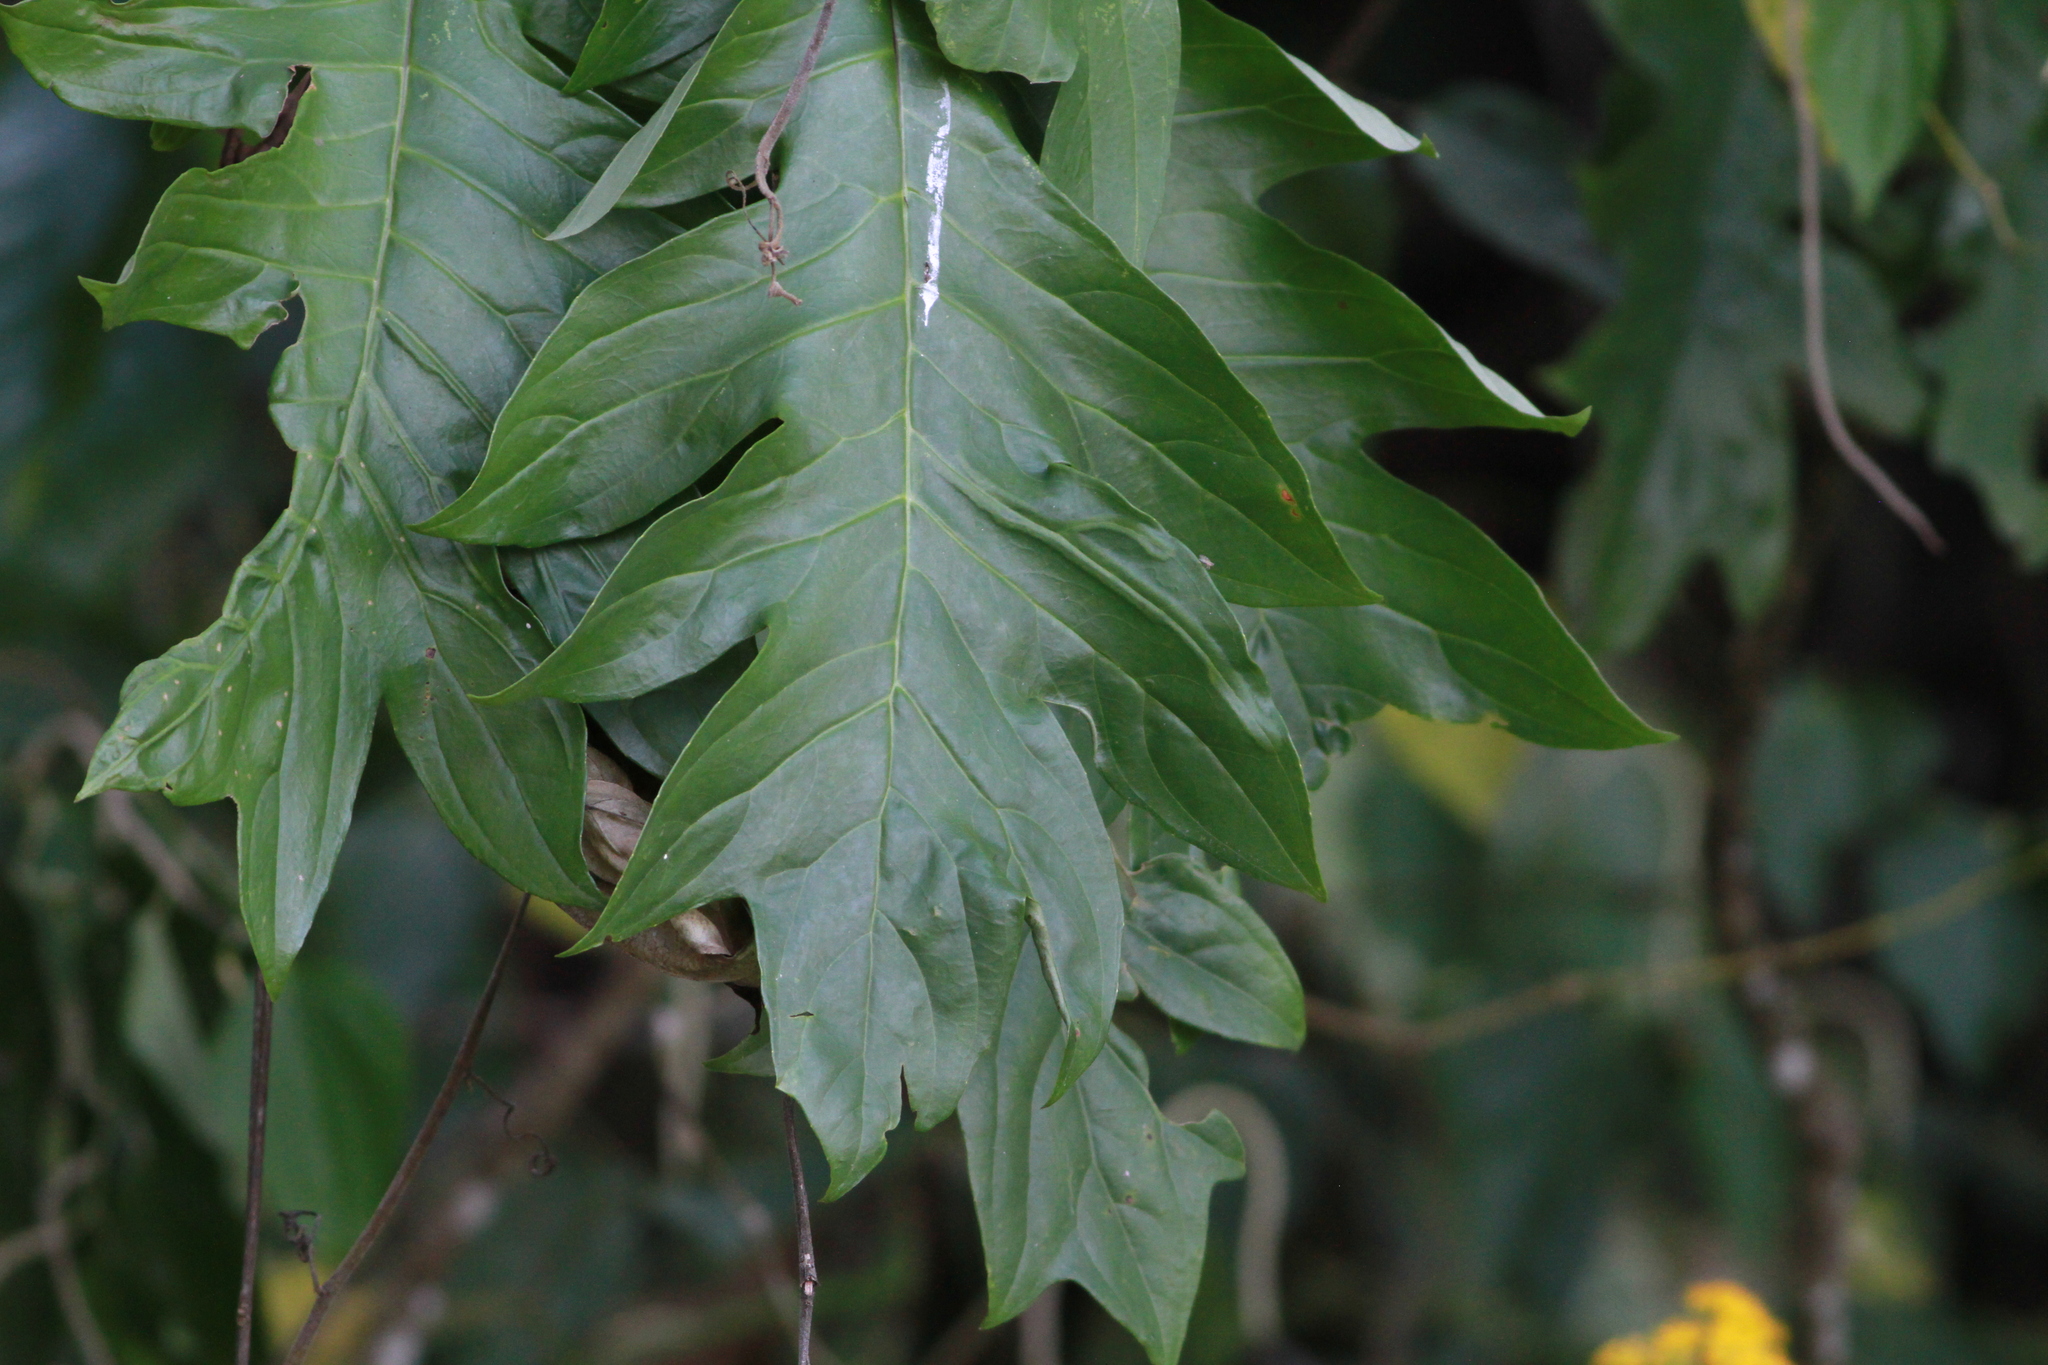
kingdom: Plantae
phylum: Tracheophyta
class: Magnoliopsida
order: Asterales
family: Asteraceae
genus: Telanthophora
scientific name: Telanthophora grandifolia
